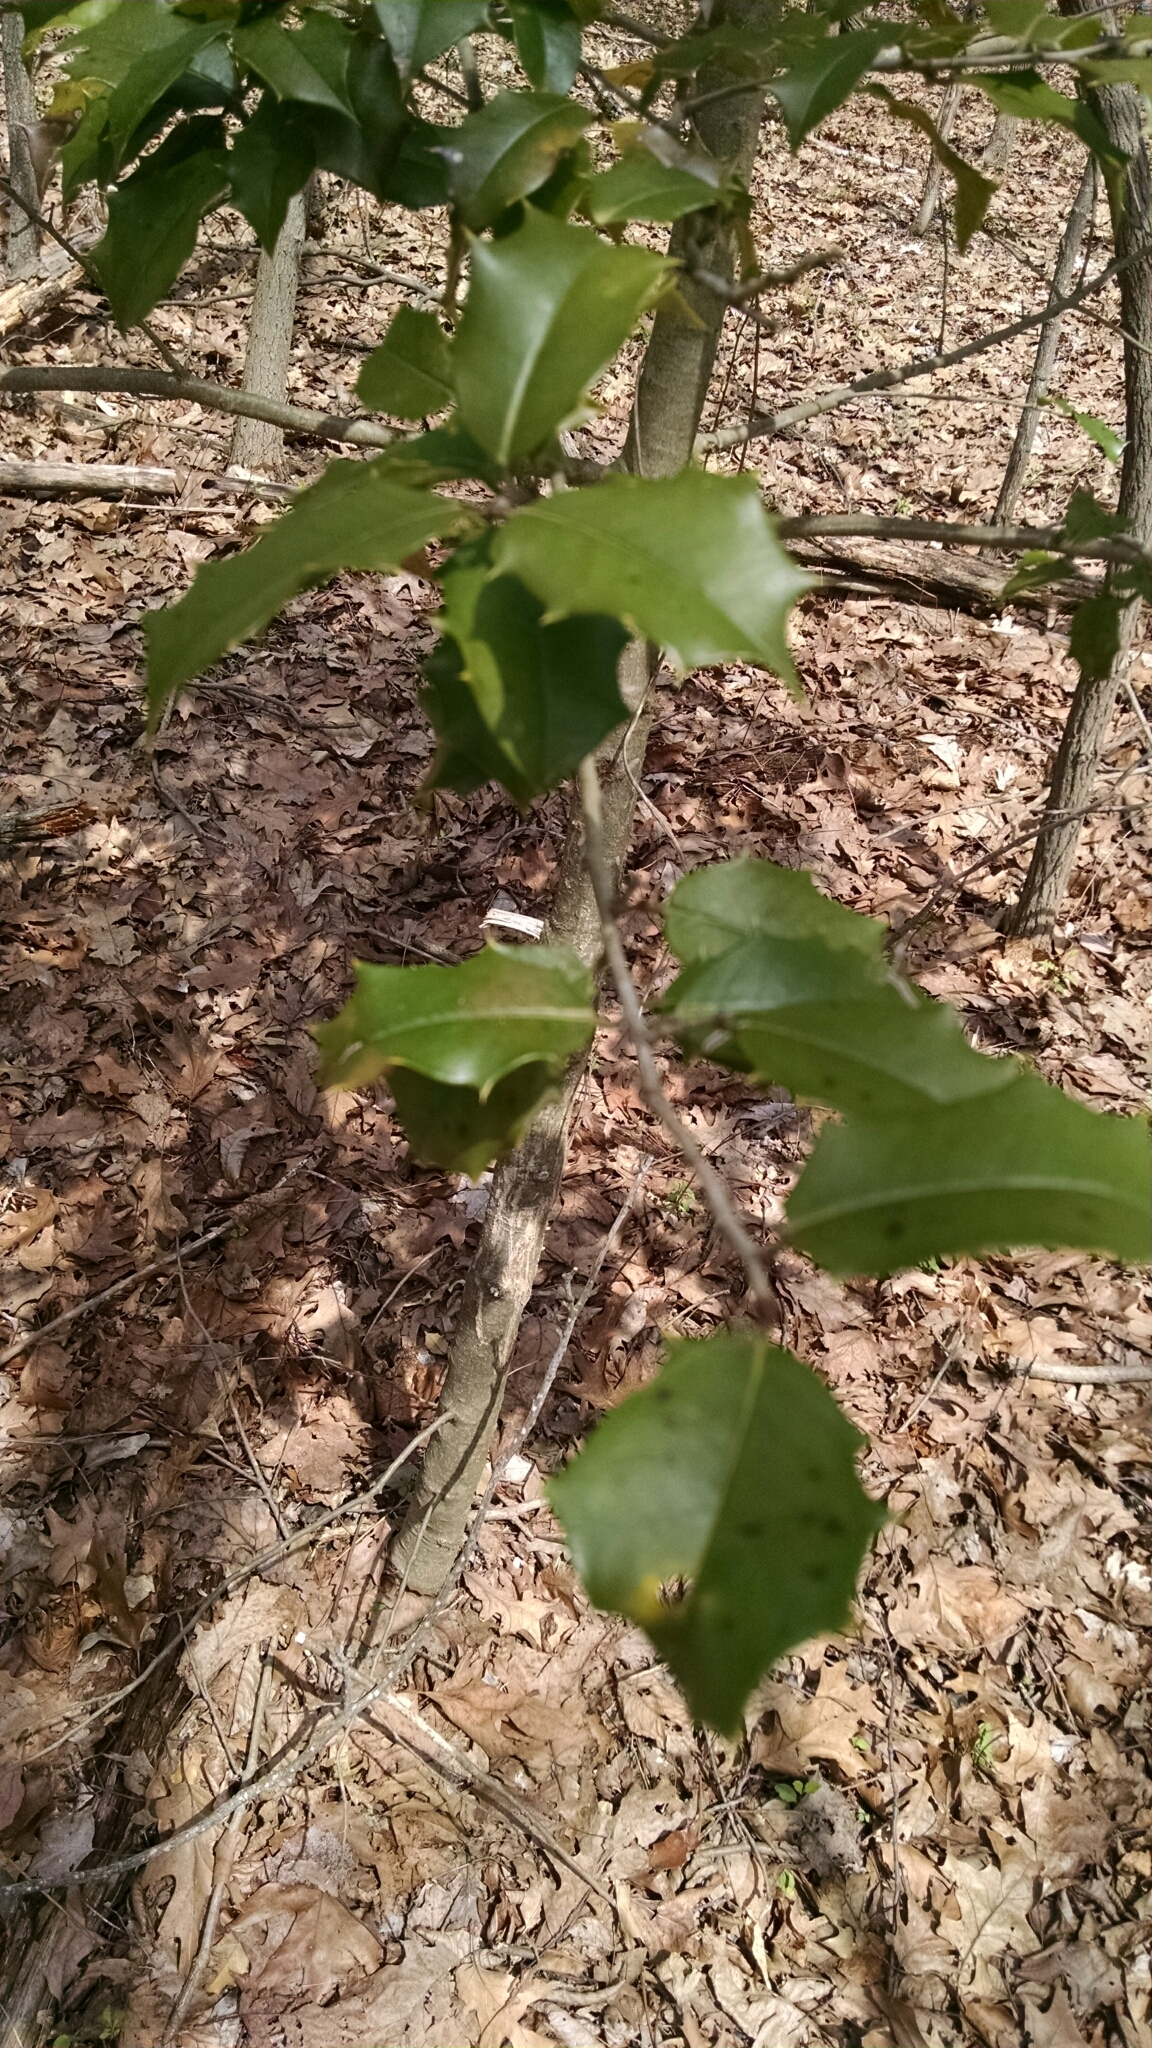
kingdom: Plantae
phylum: Tracheophyta
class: Magnoliopsida
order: Aquifoliales
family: Aquifoliaceae
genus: Ilex
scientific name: Ilex opaca
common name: American holly
